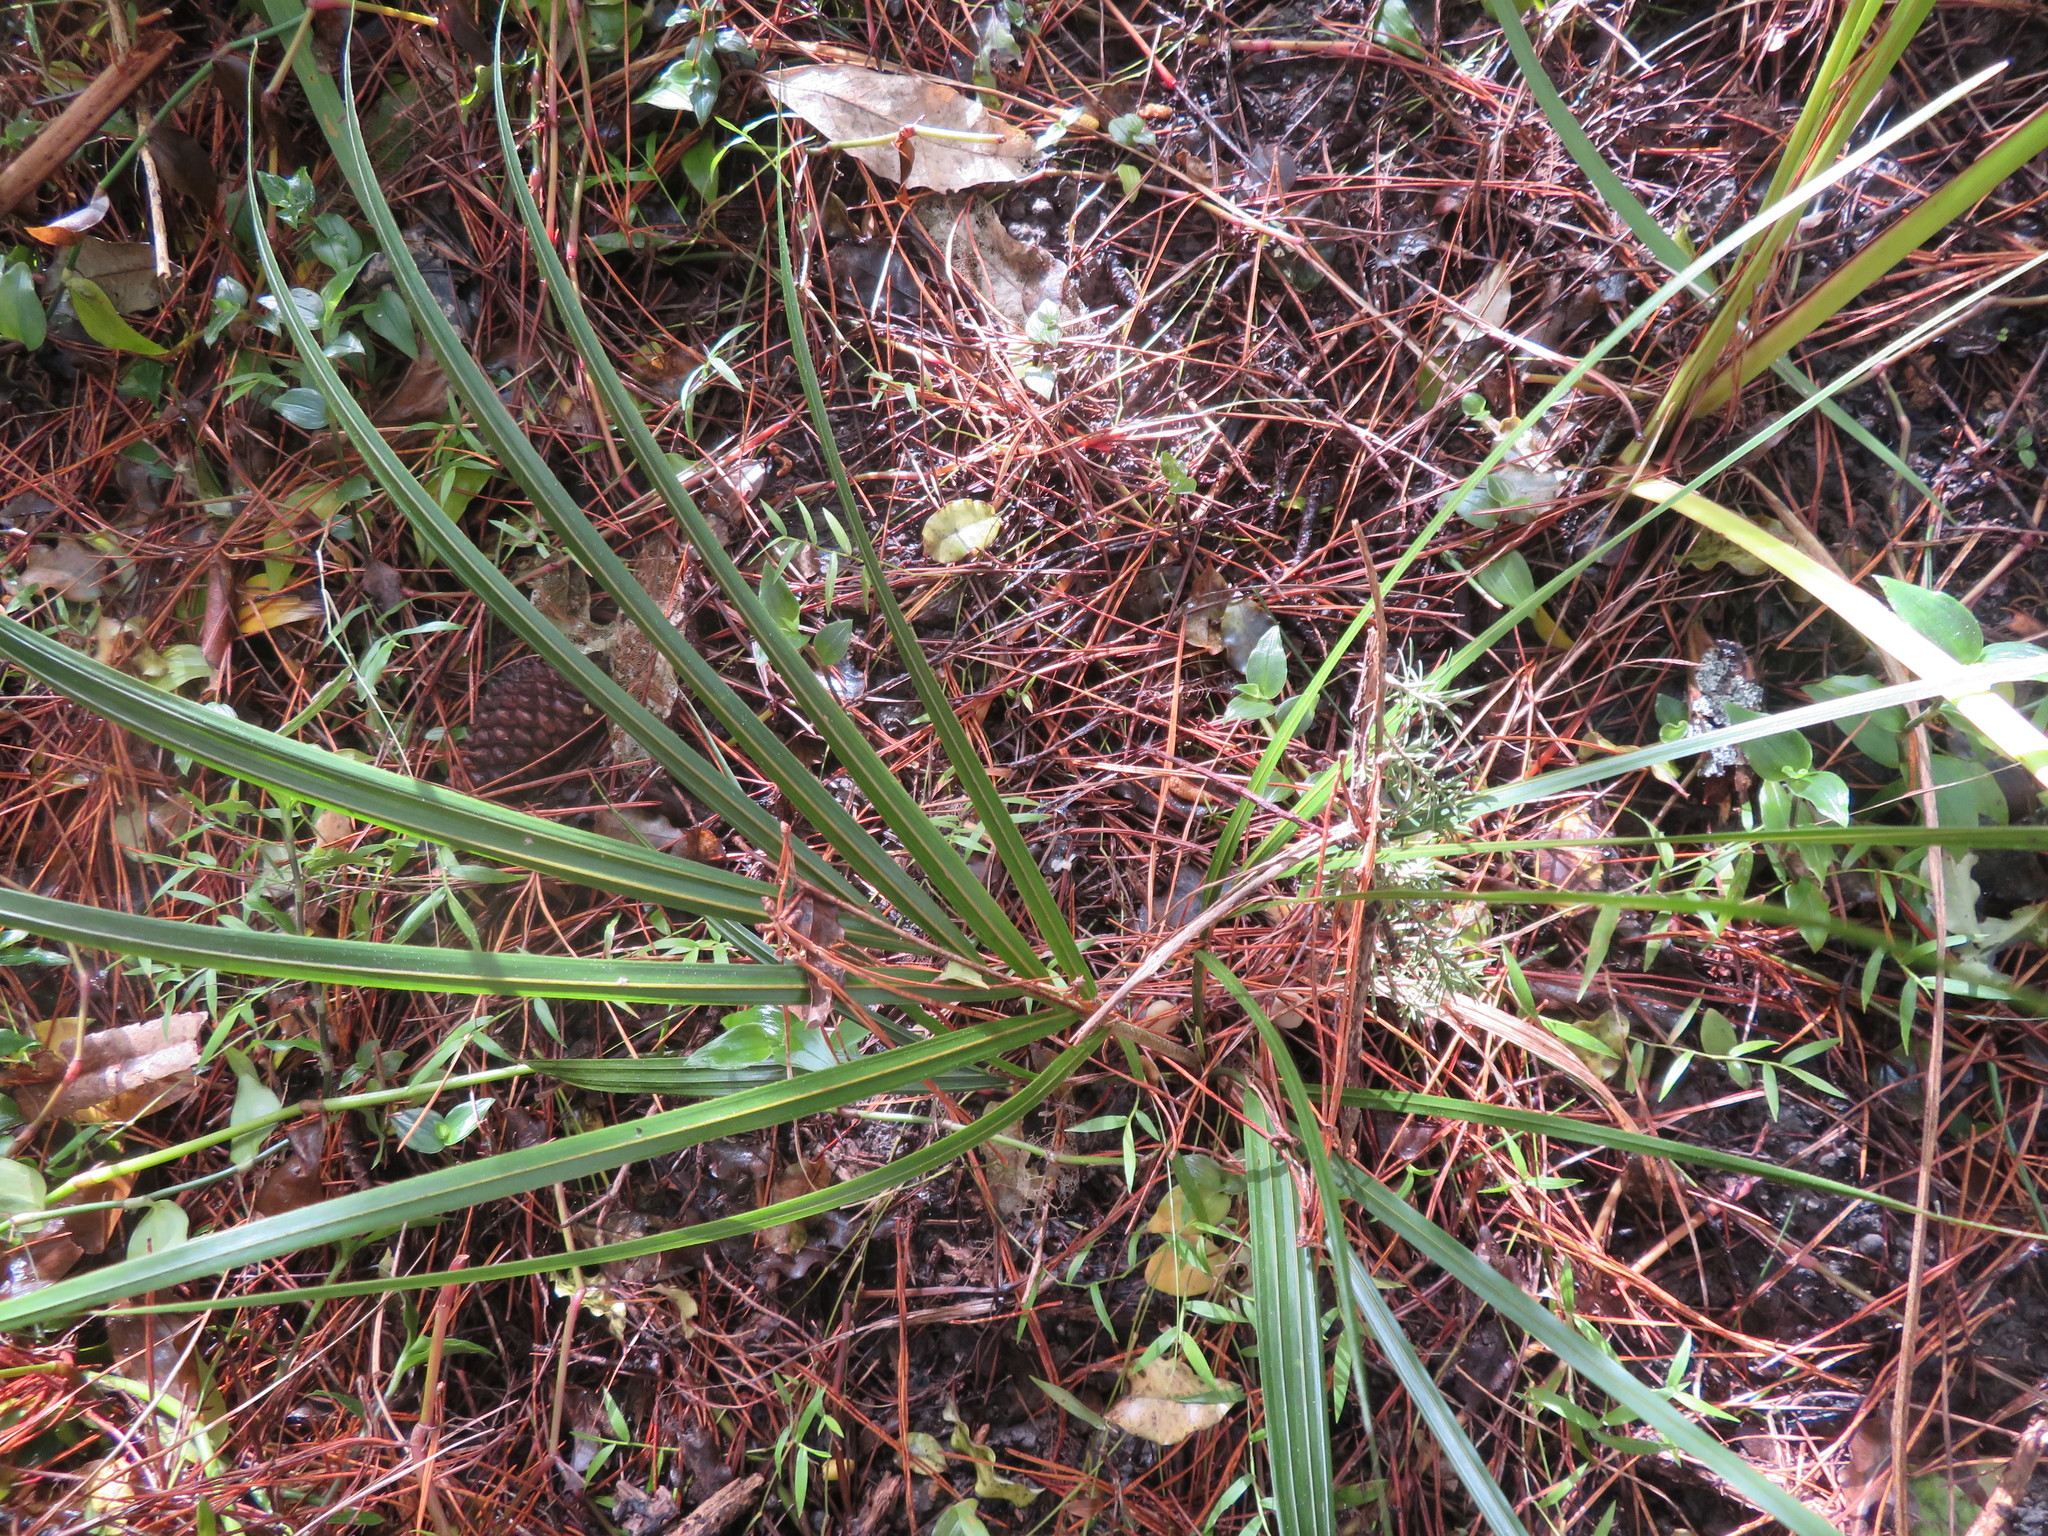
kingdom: Plantae
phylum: Tracheophyta
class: Liliopsida
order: Arecales
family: Arecaceae
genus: Rhopalostylis
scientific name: Rhopalostylis sapida
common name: Feather-duster palm
